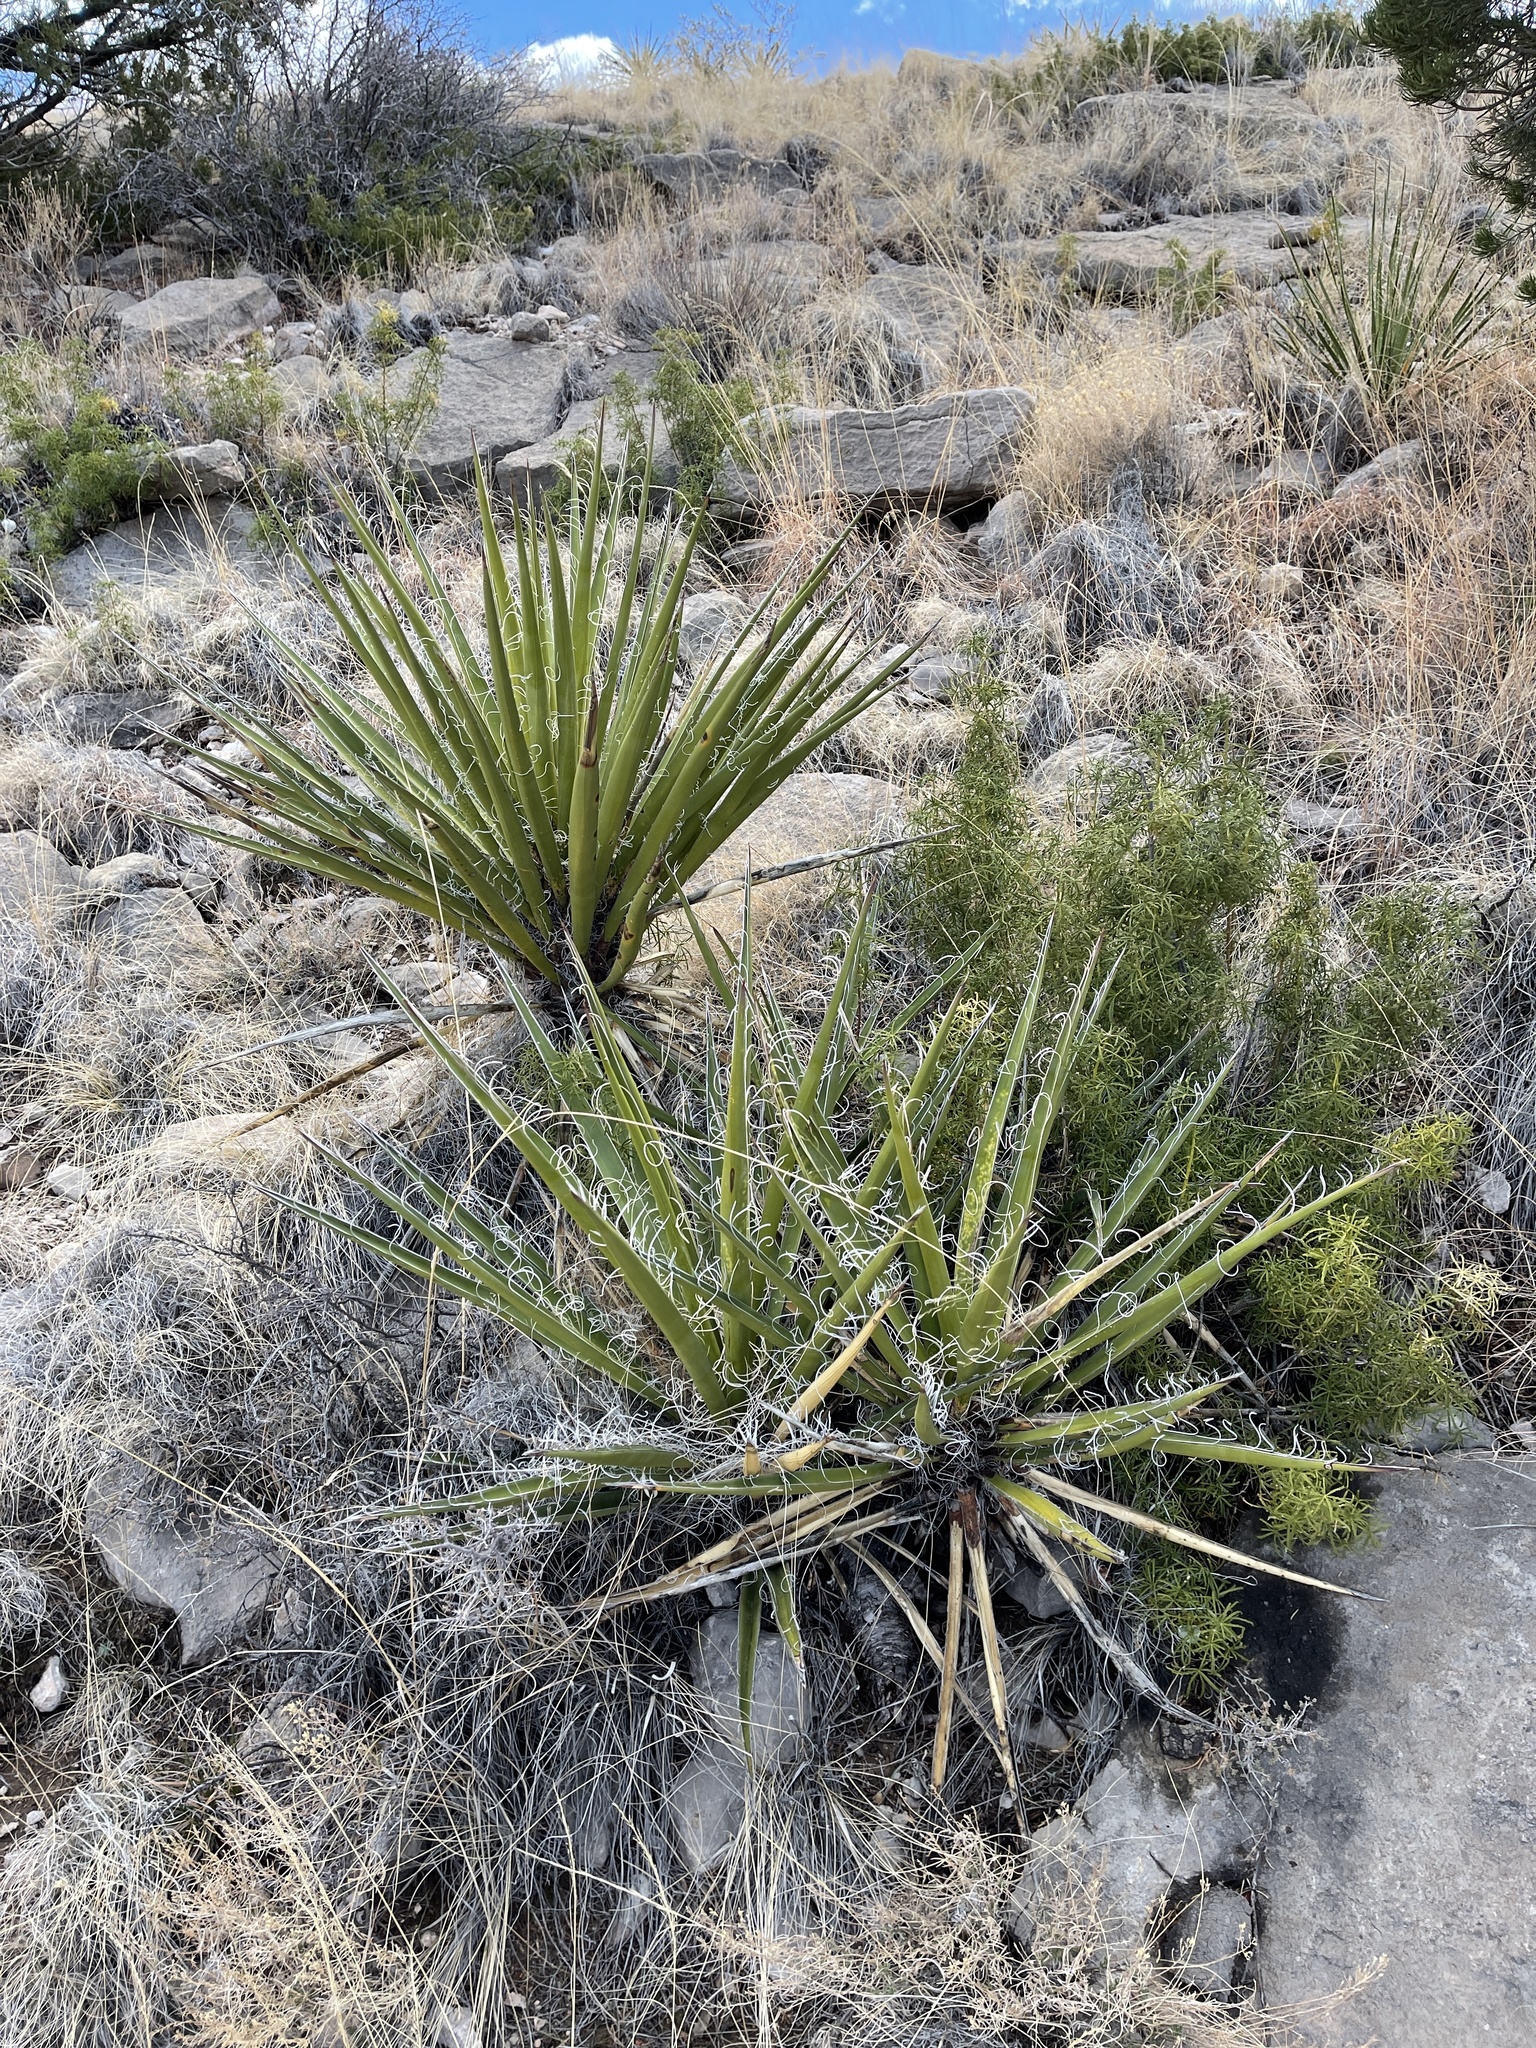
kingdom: Plantae
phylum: Tracheophyta
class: Liliopsida
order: Asparagales
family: Asparagaceae
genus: Yucca
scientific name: Yucca treculiana
